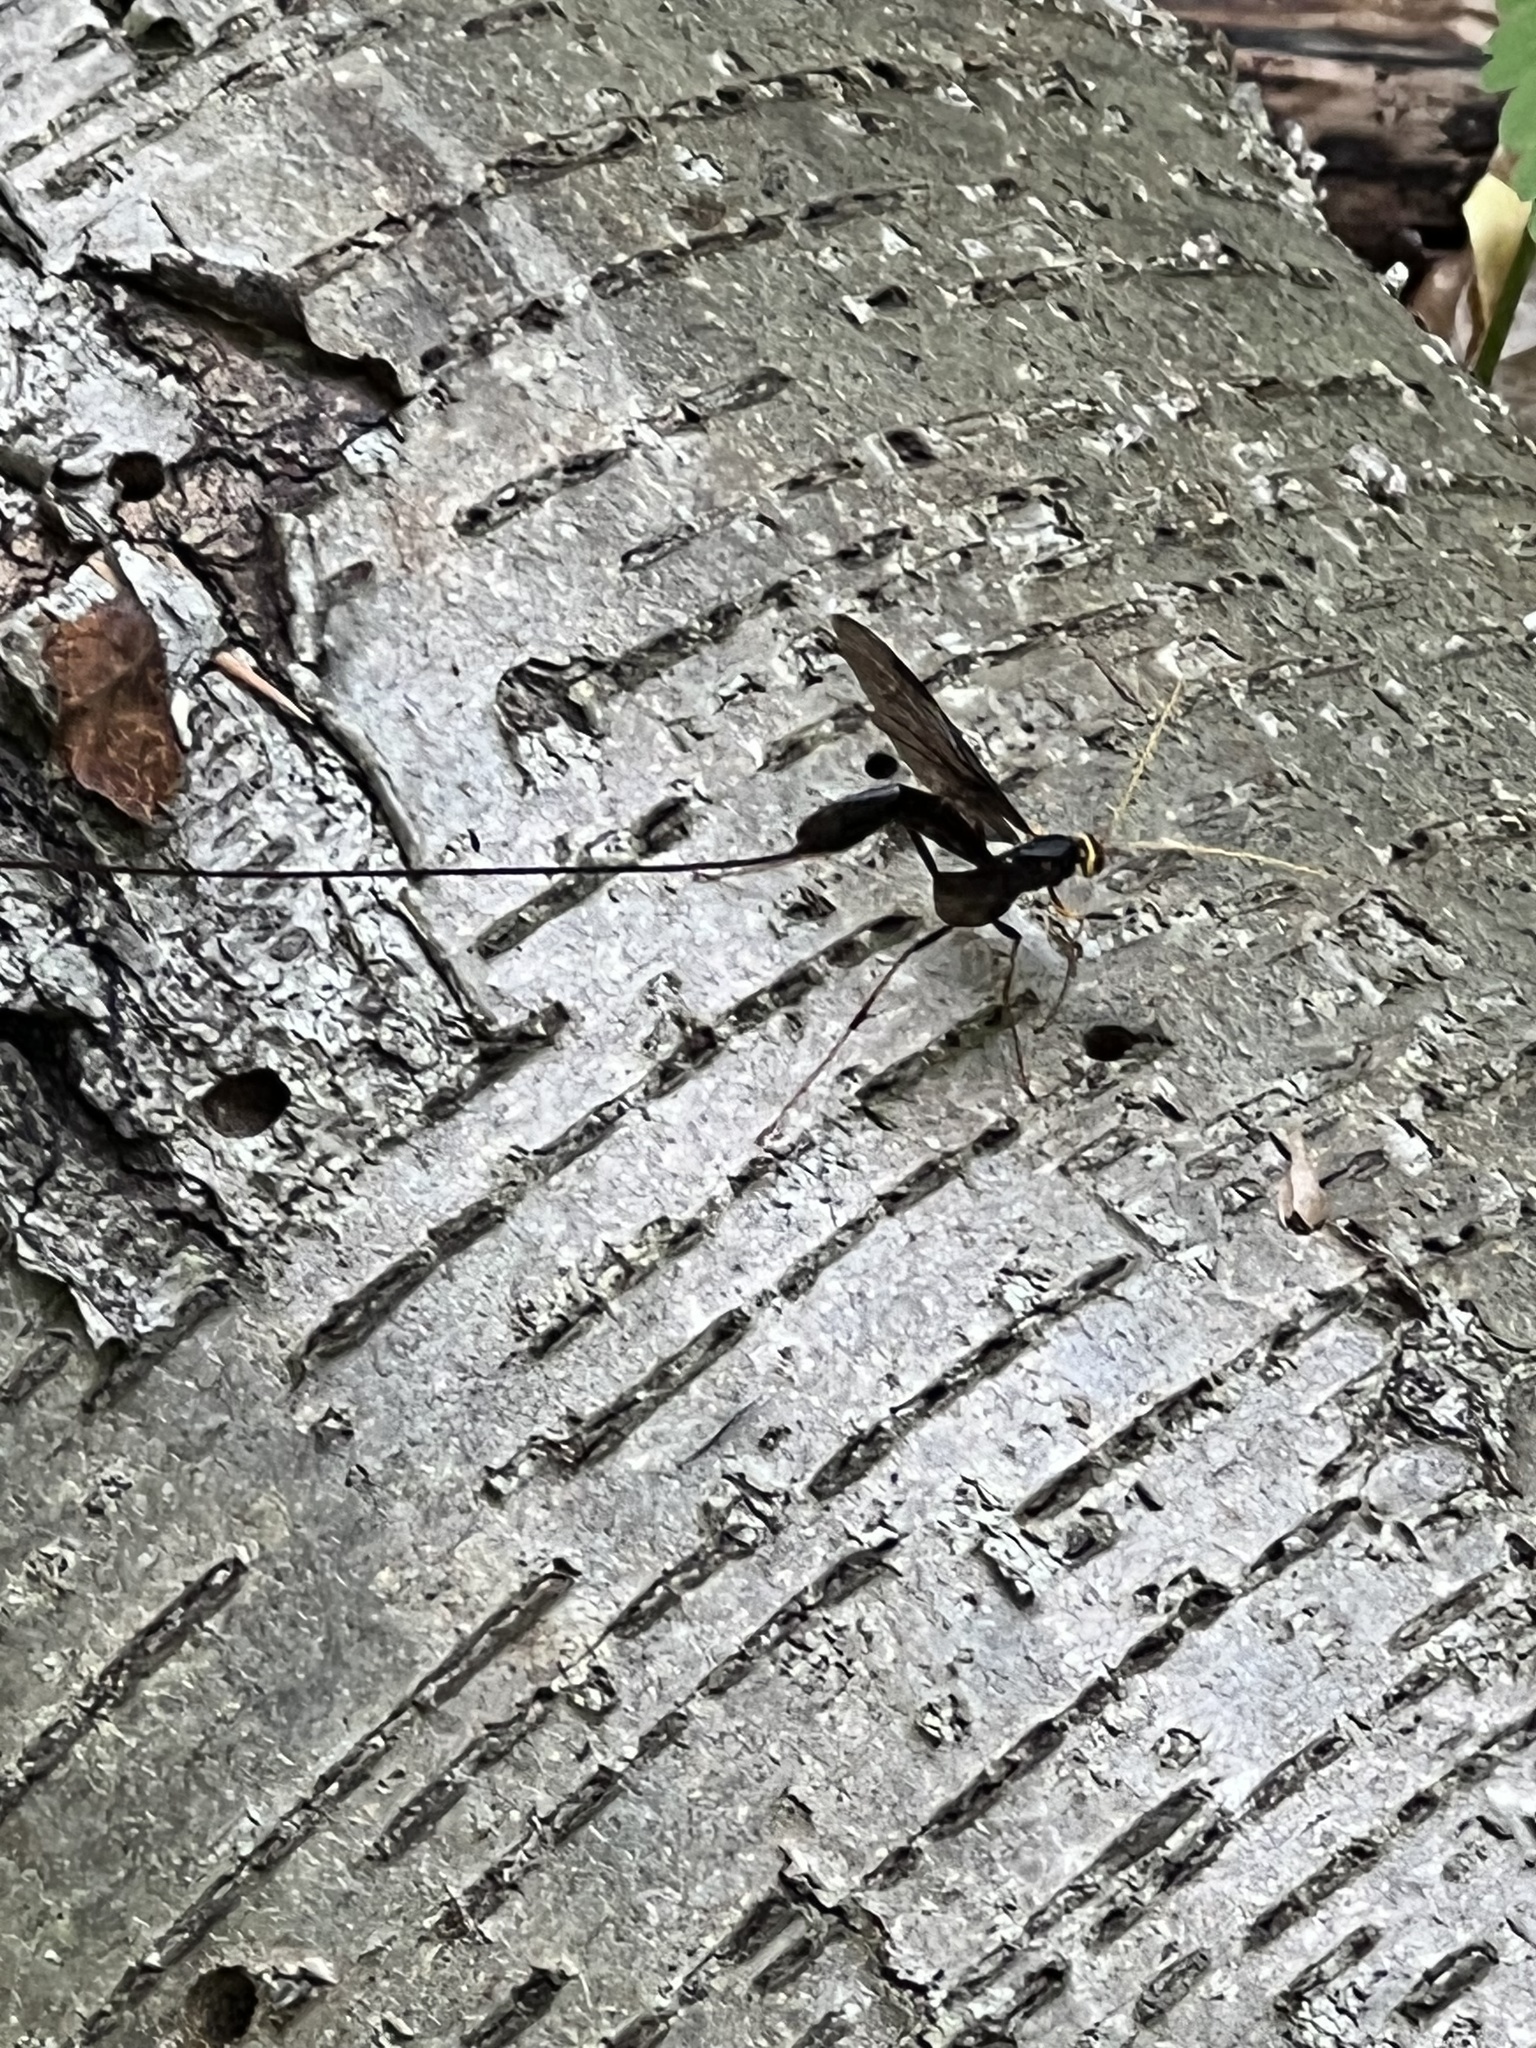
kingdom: Animalia
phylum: Arthropoda
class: Insecta
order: Hymenoptera
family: Ichneumonidae
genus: Megarhyssa
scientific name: Megarhyssa atrata
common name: Black giant ichneumonid wasp
